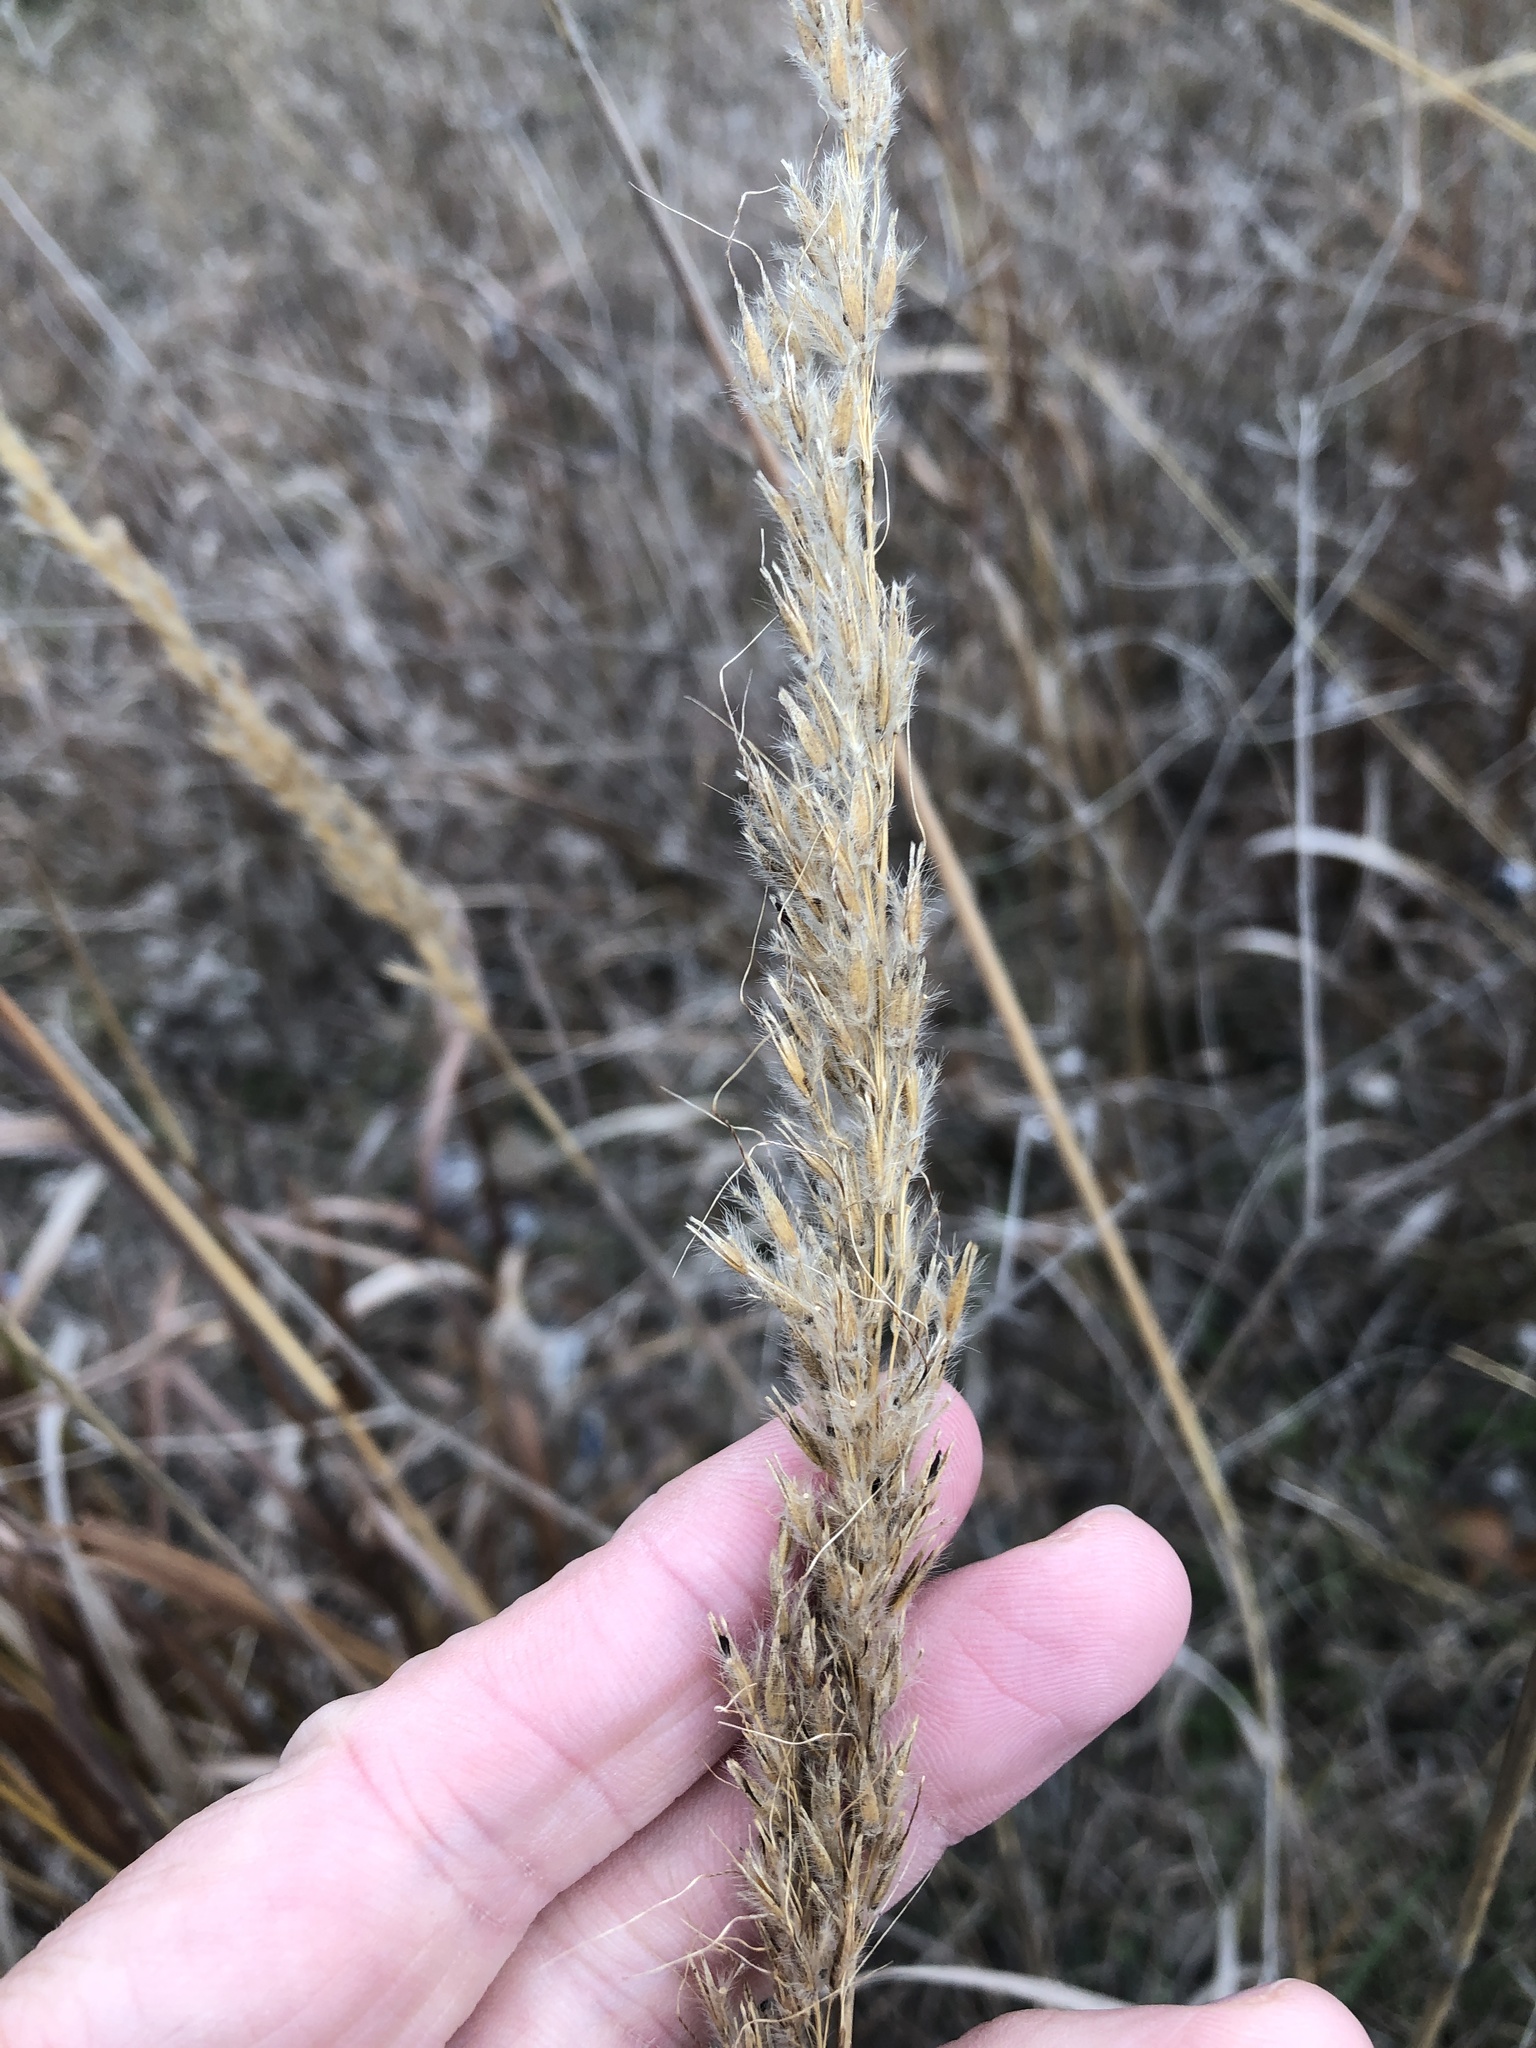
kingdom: Plantae
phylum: Tracheophyta
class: Liliopsida
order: Poales
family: Poaceae
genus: Sorghastrum
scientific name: Sorghastrum nutans
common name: Indian grass
